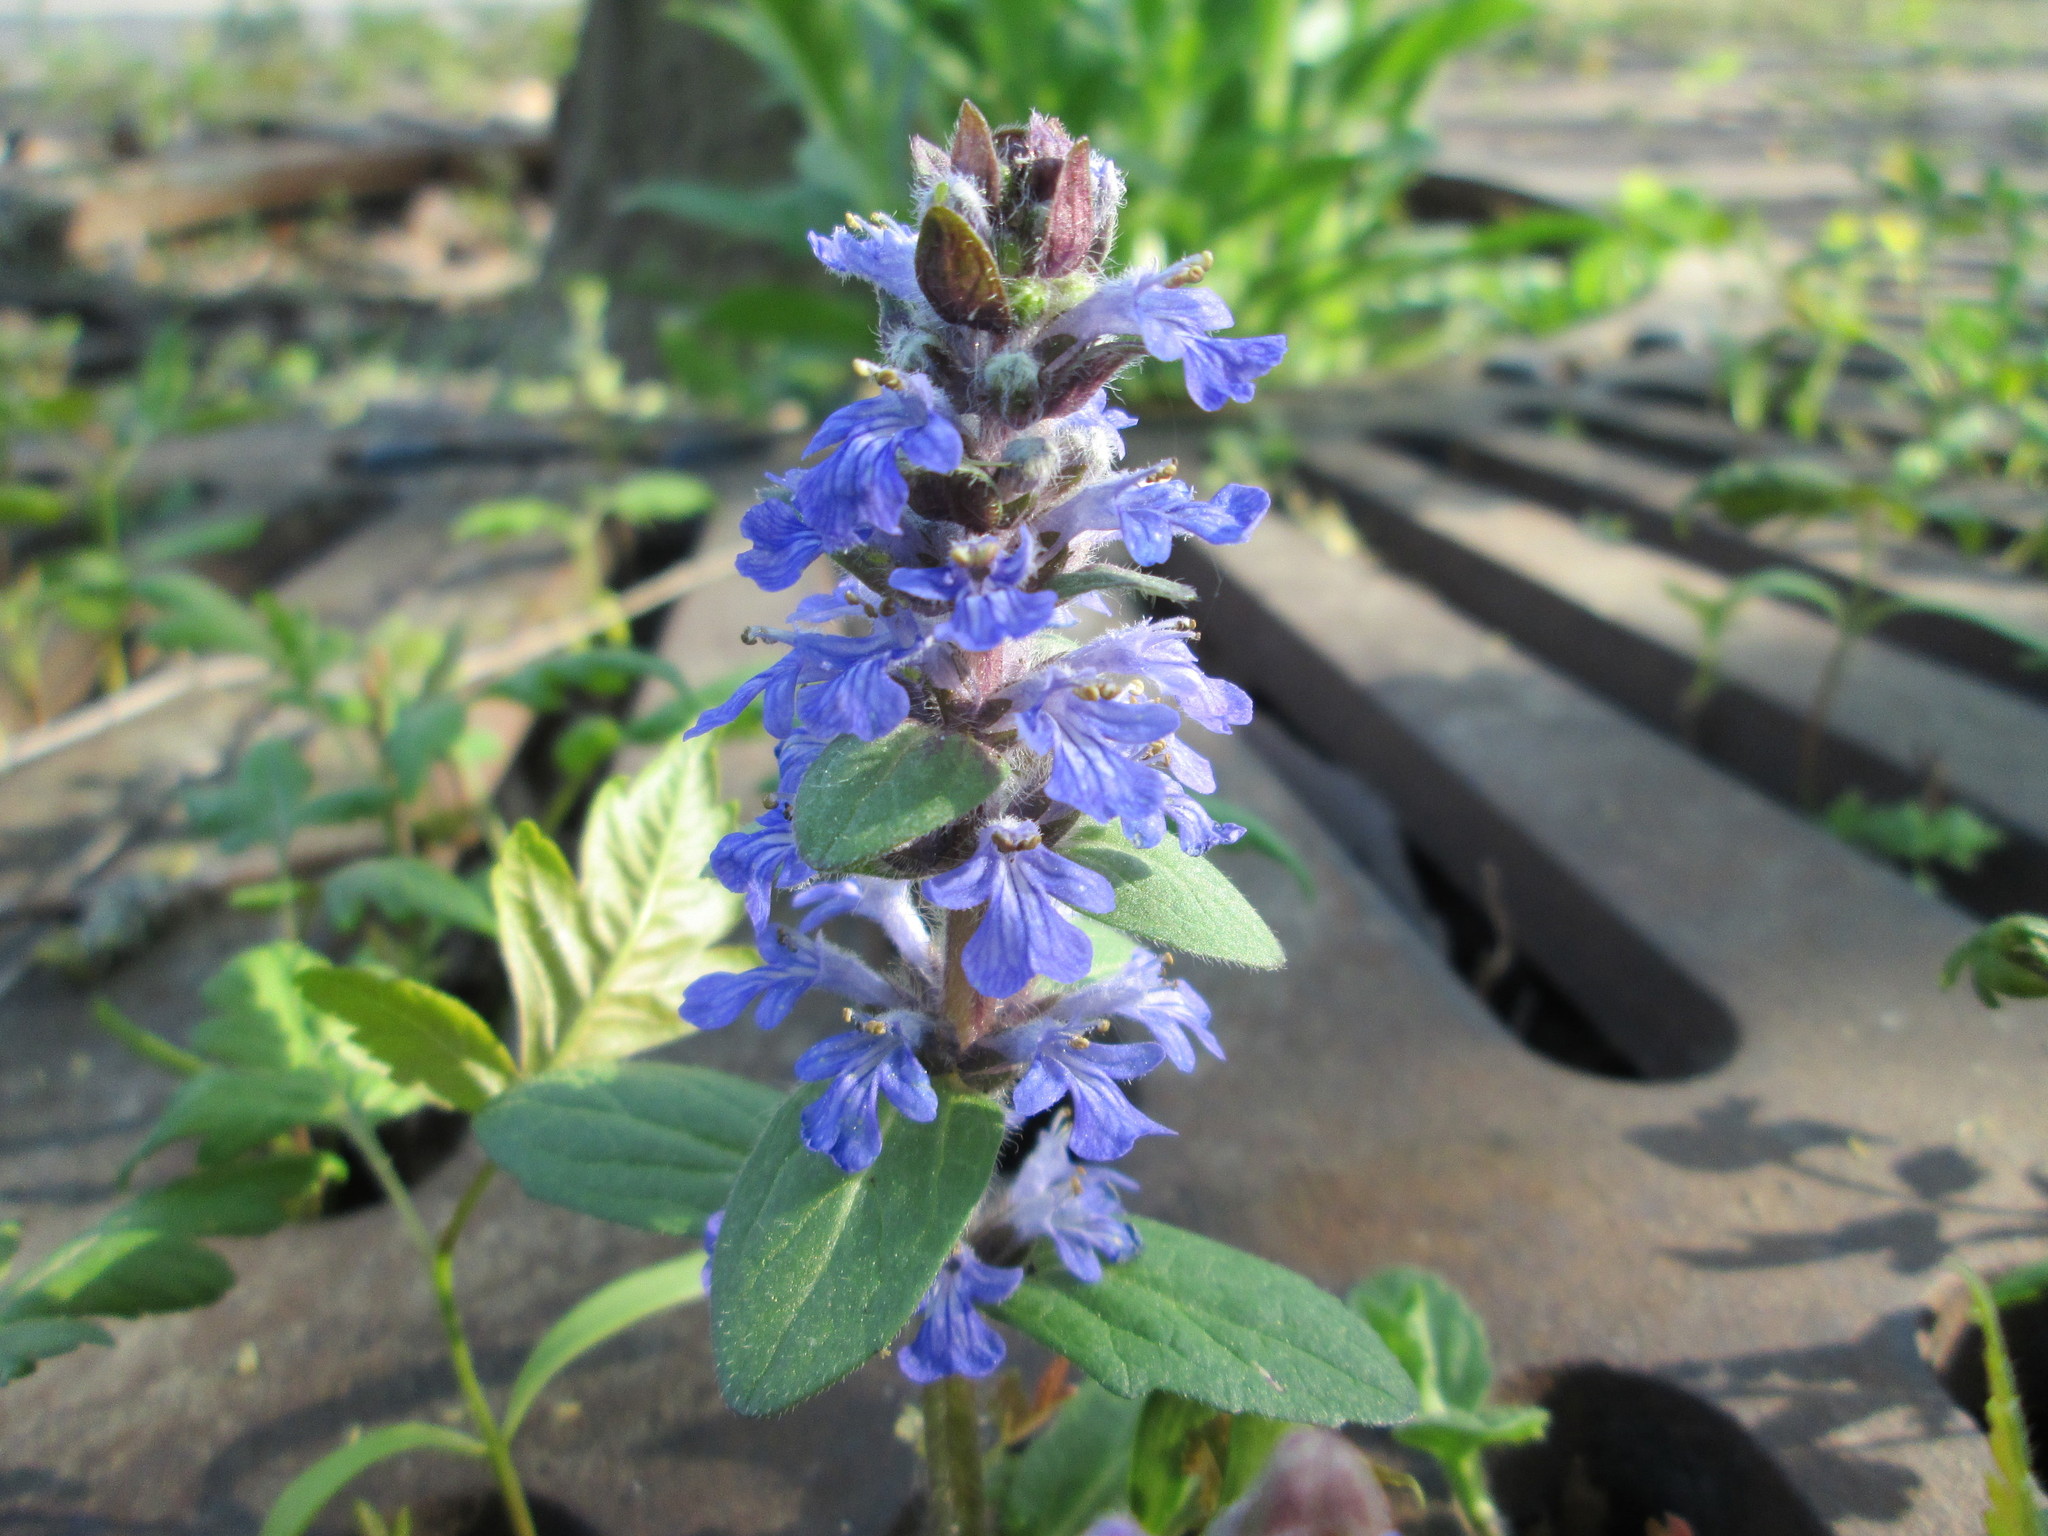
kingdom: Plantae
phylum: Tracheophyta
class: Magnoliopsida
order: Lamiales
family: Lamiaceae
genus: Ajuga
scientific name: Ajuga reptans
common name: Bugle
